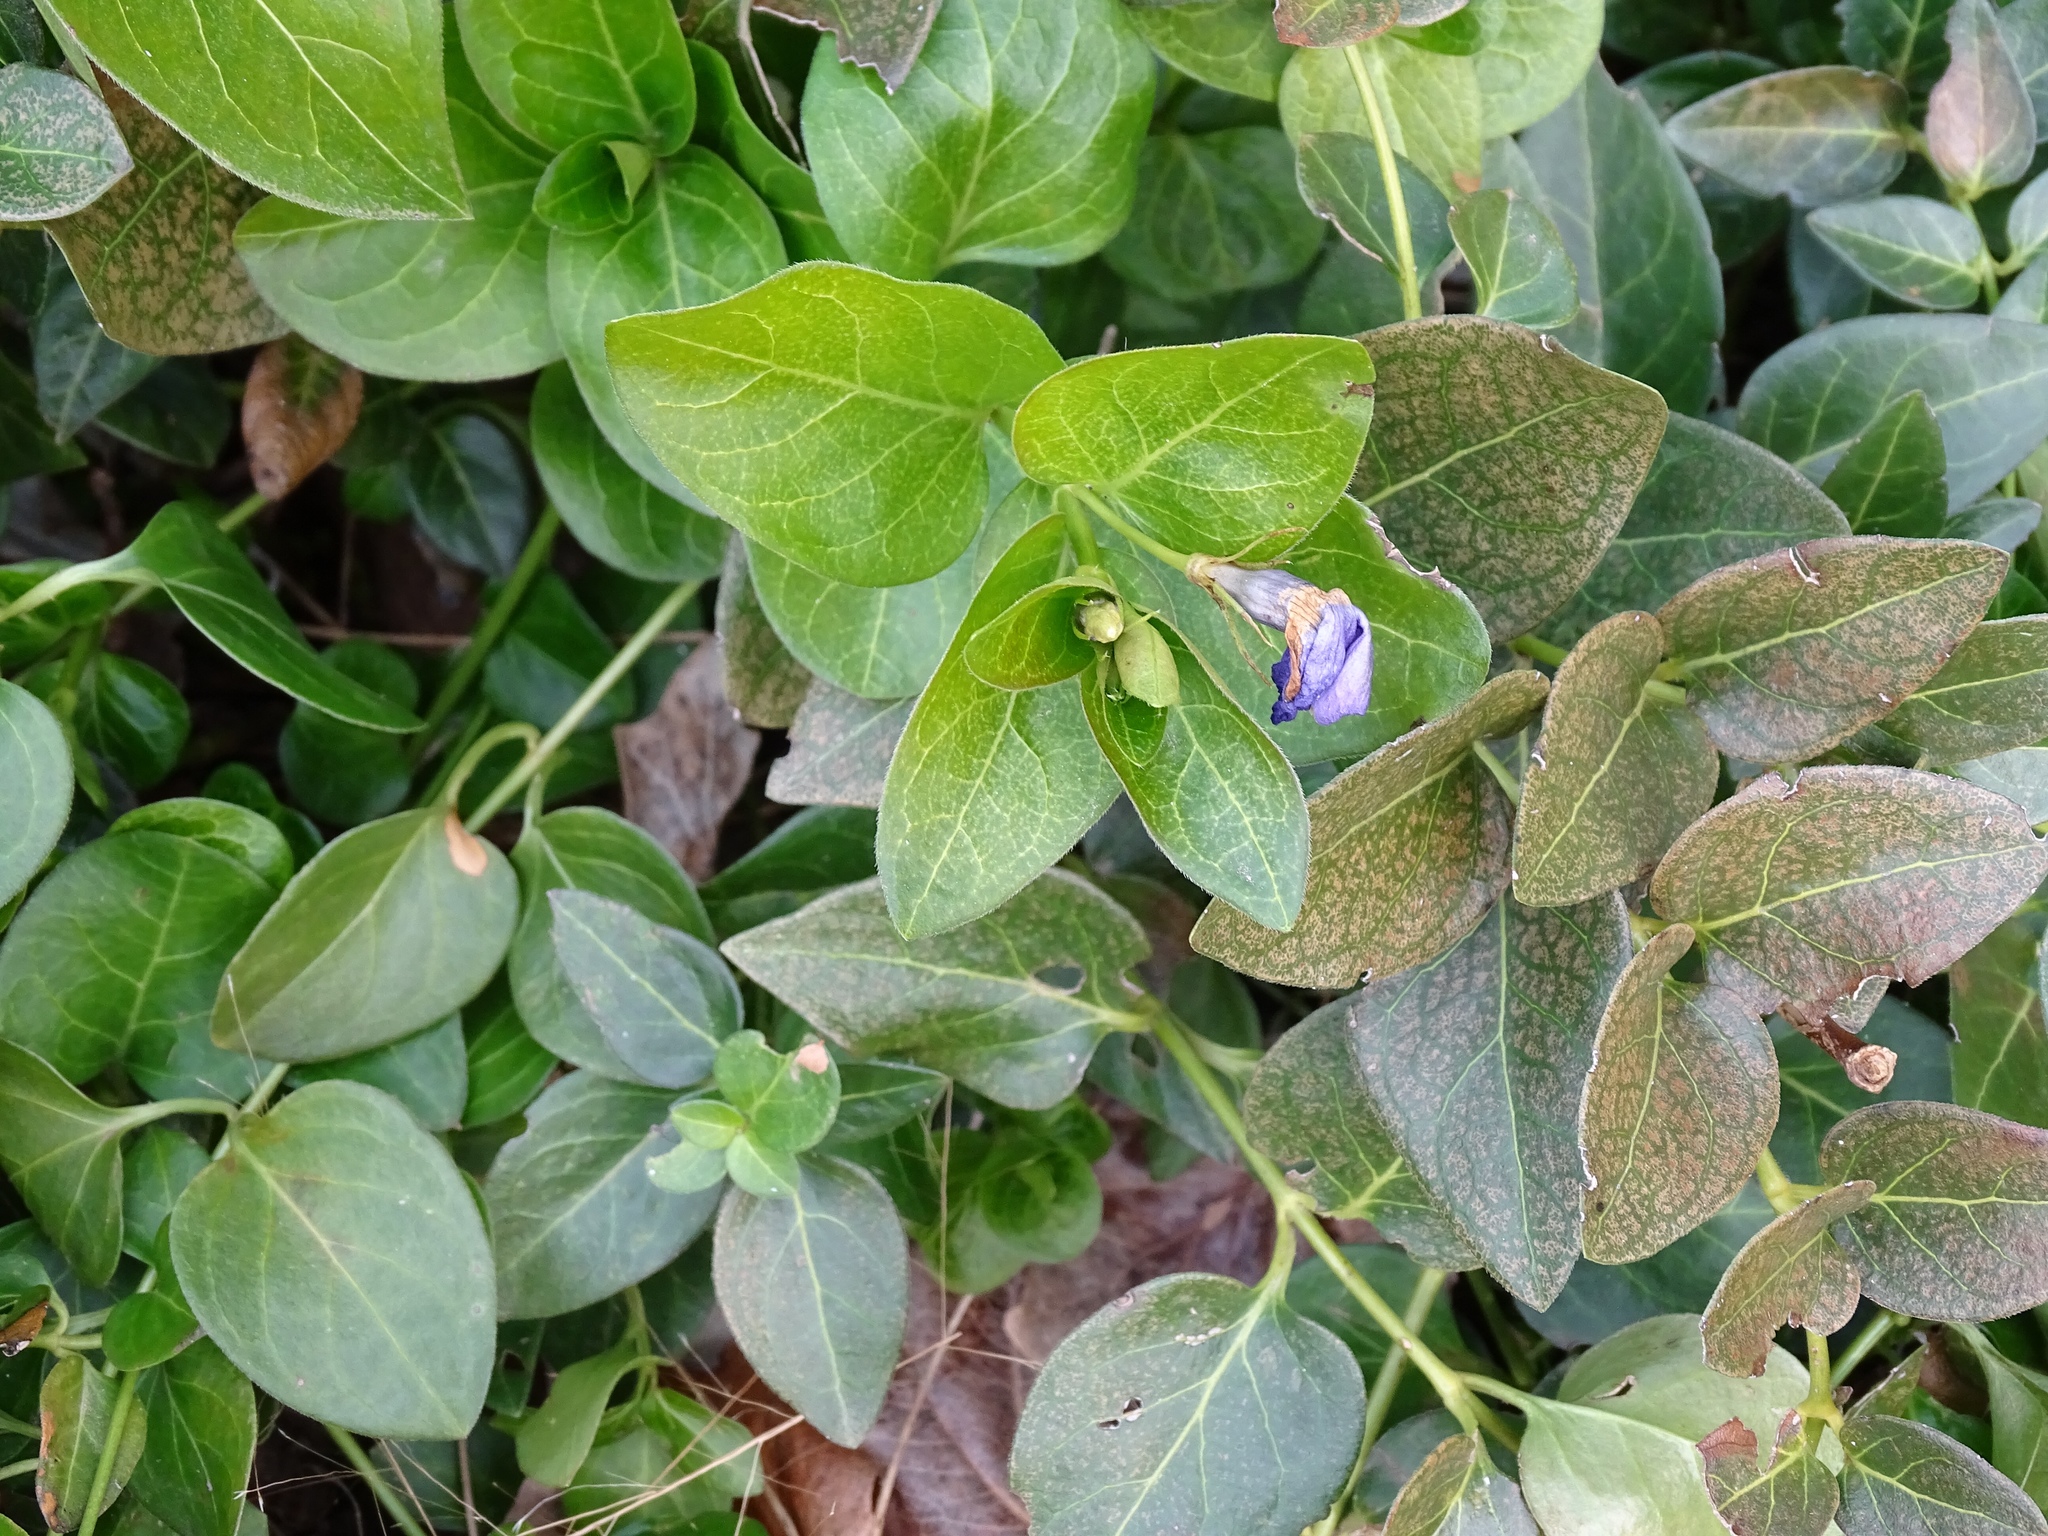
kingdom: Plantae
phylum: Tracheophyta
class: Magnoliopsida
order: Gentianales
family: Apocynaceae
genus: Vinca
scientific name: Vinca major
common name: Greater periwinkle
